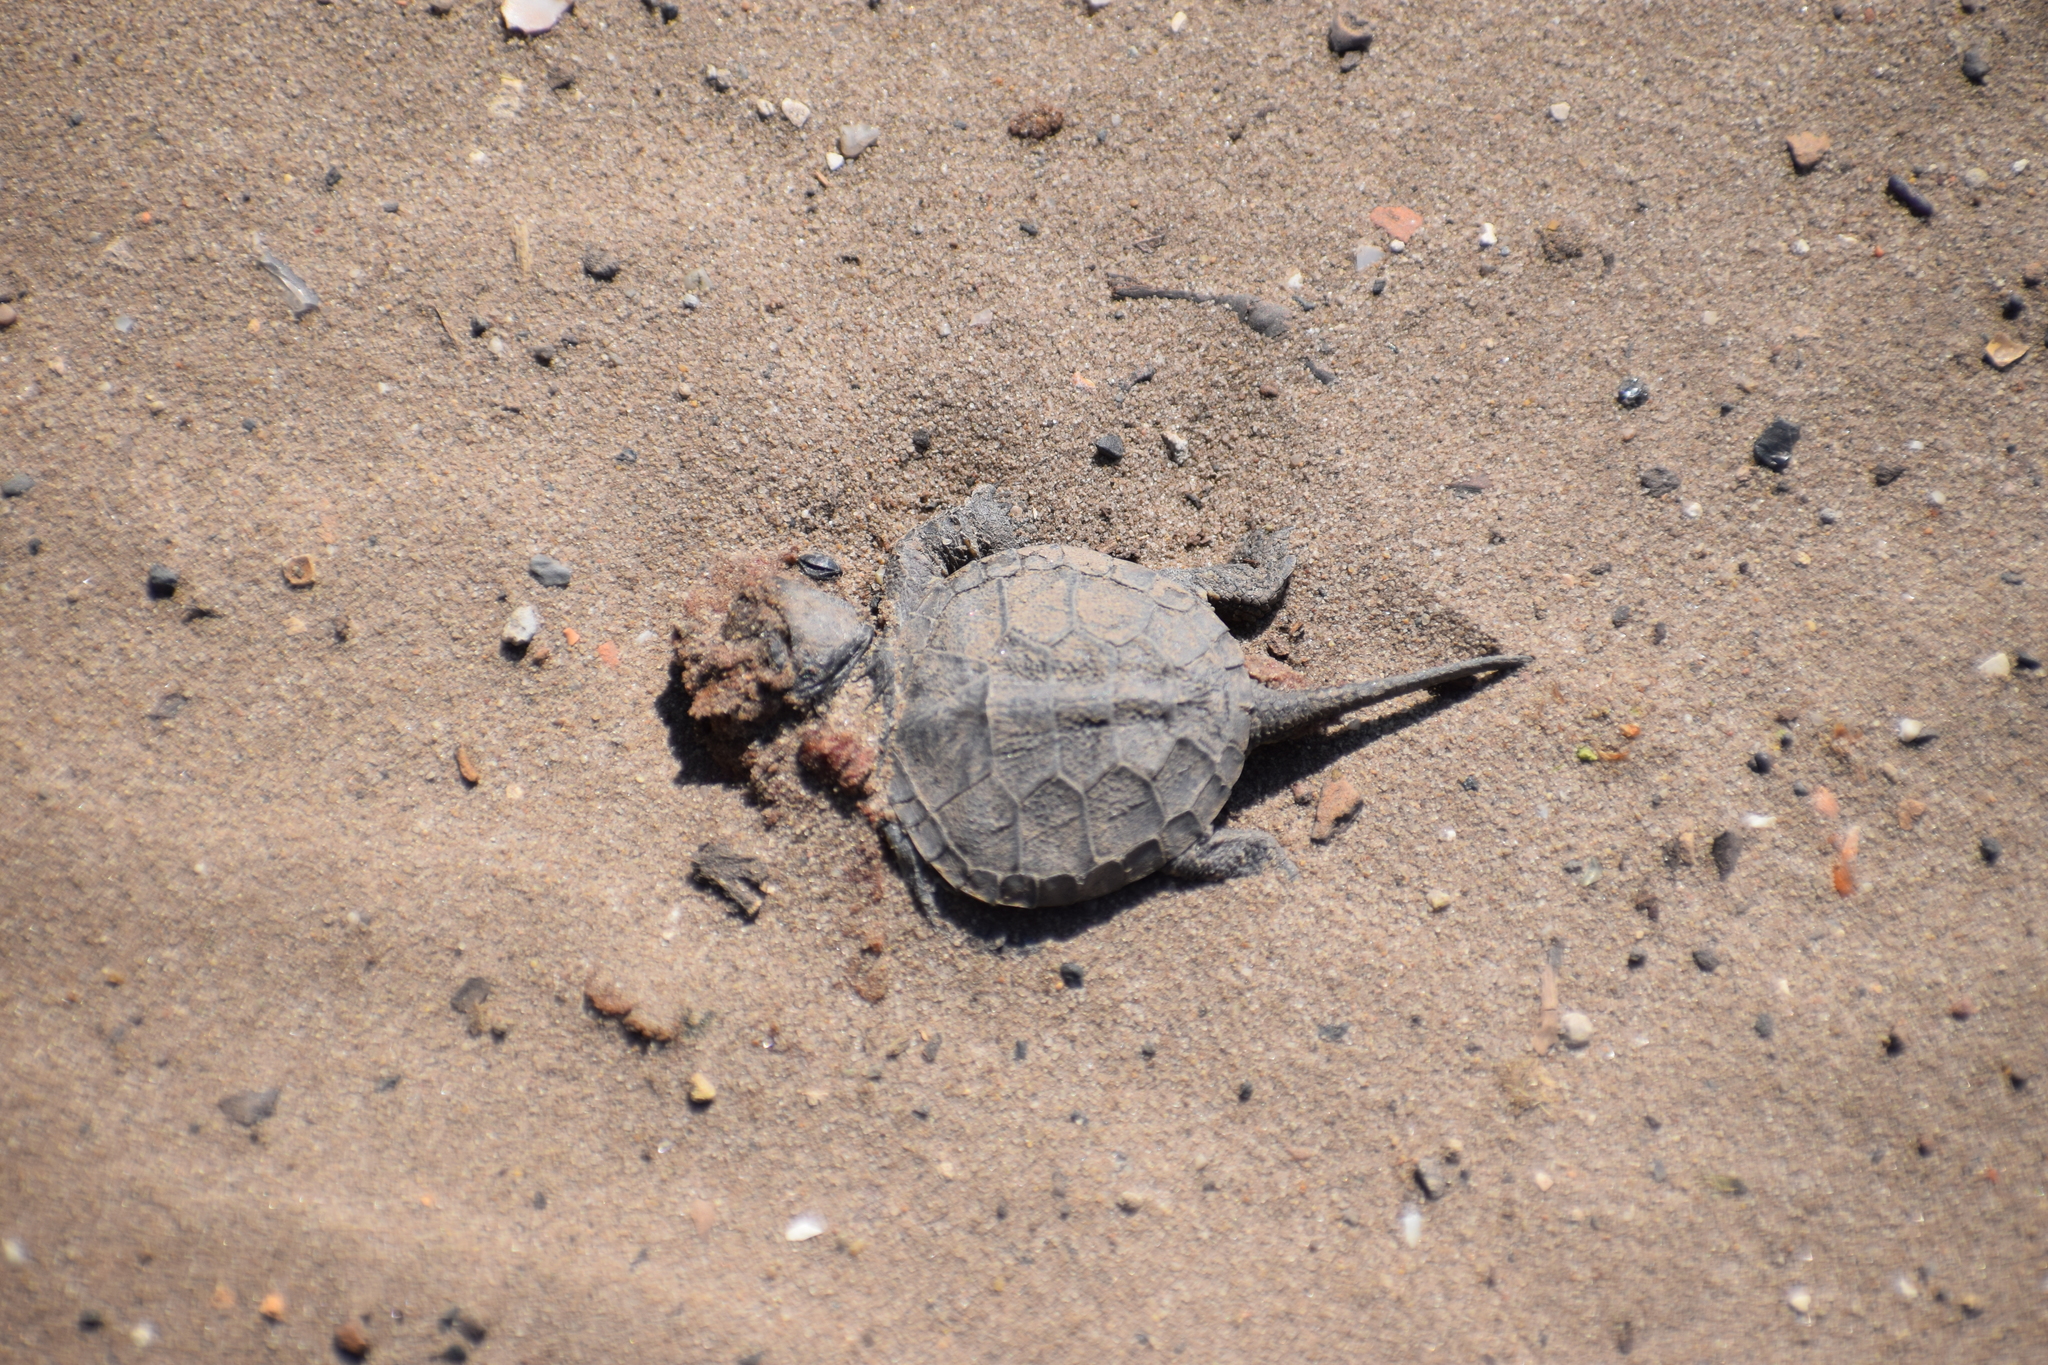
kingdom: Animalia
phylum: Chordata
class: Testudines
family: Emydidae
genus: Emys
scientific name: Emys orbicularis
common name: European pond turtle
